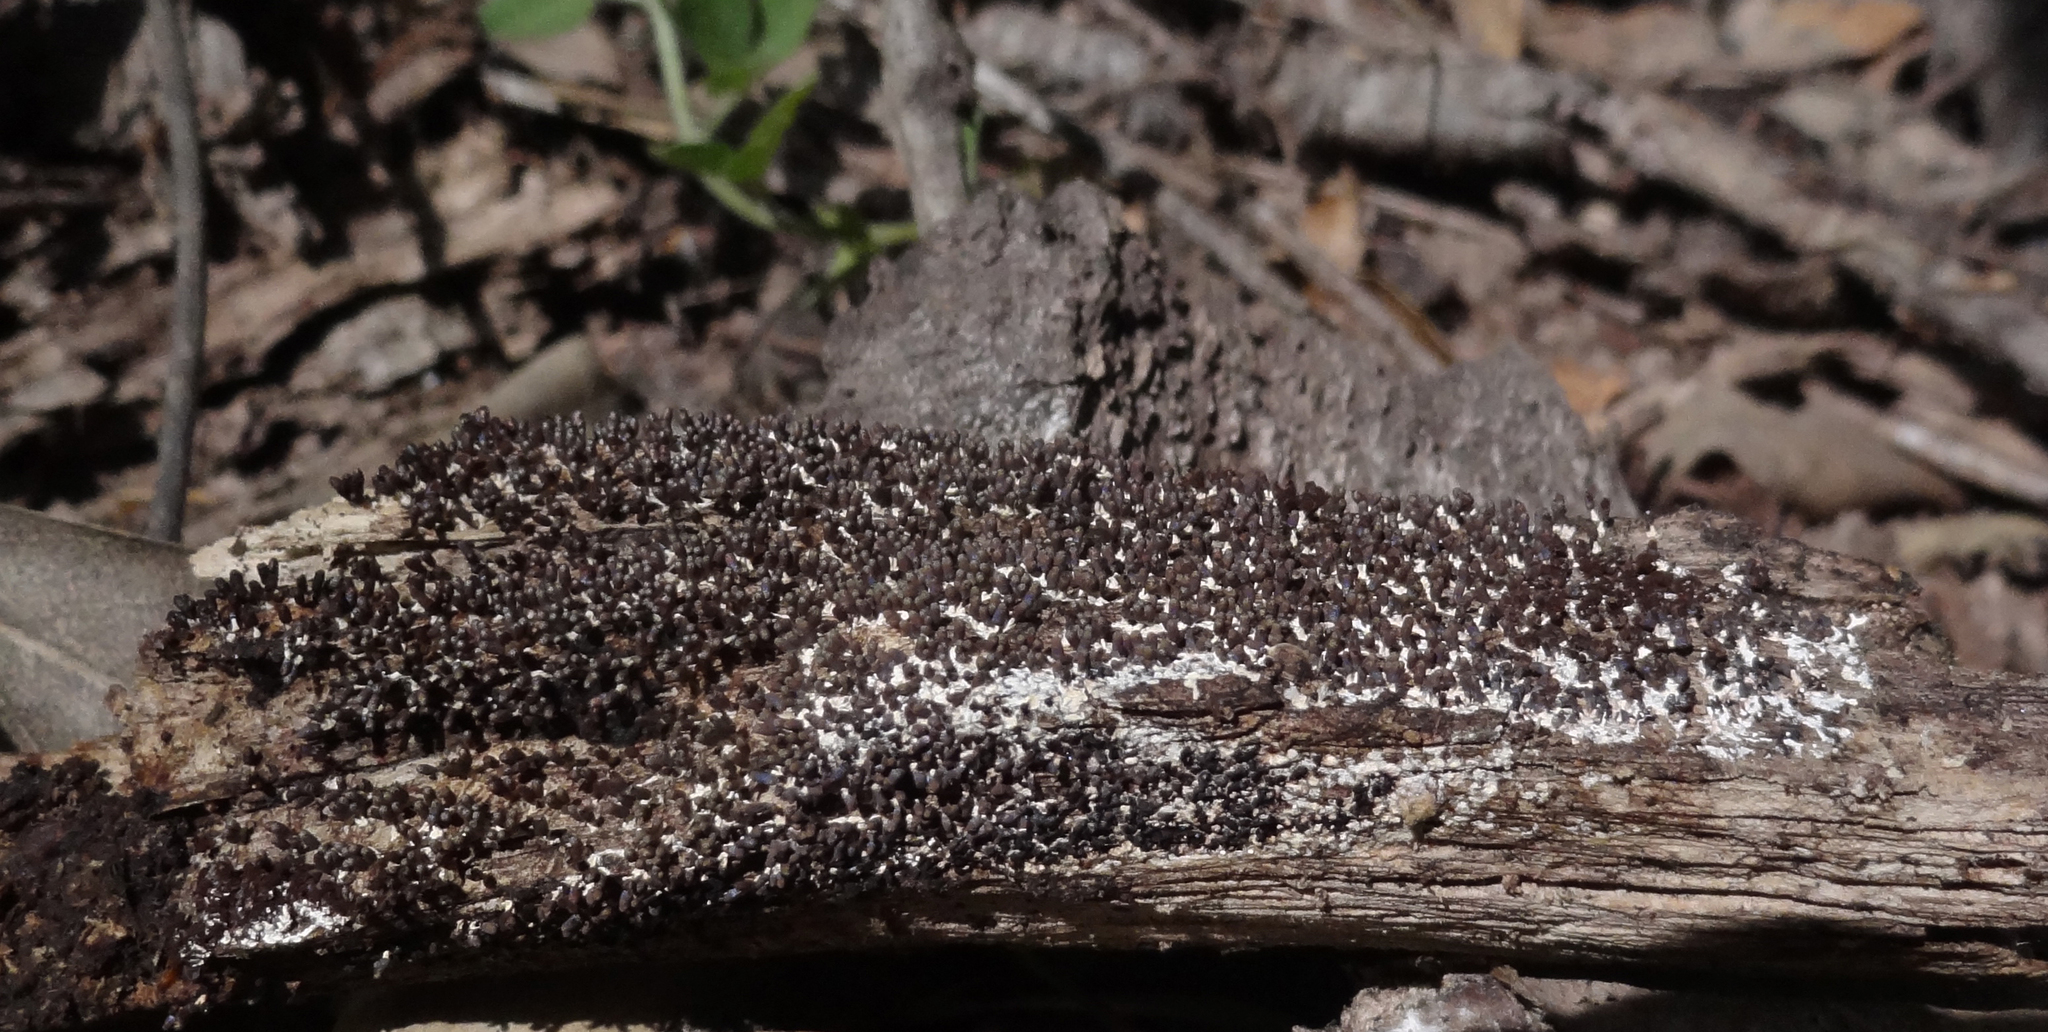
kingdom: Protozoa
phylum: Mycetozoa
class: Myxomycetes
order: Physarales
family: Didymiaceae
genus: Diachea
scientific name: Diachea leucopodia
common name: White-footed slime
